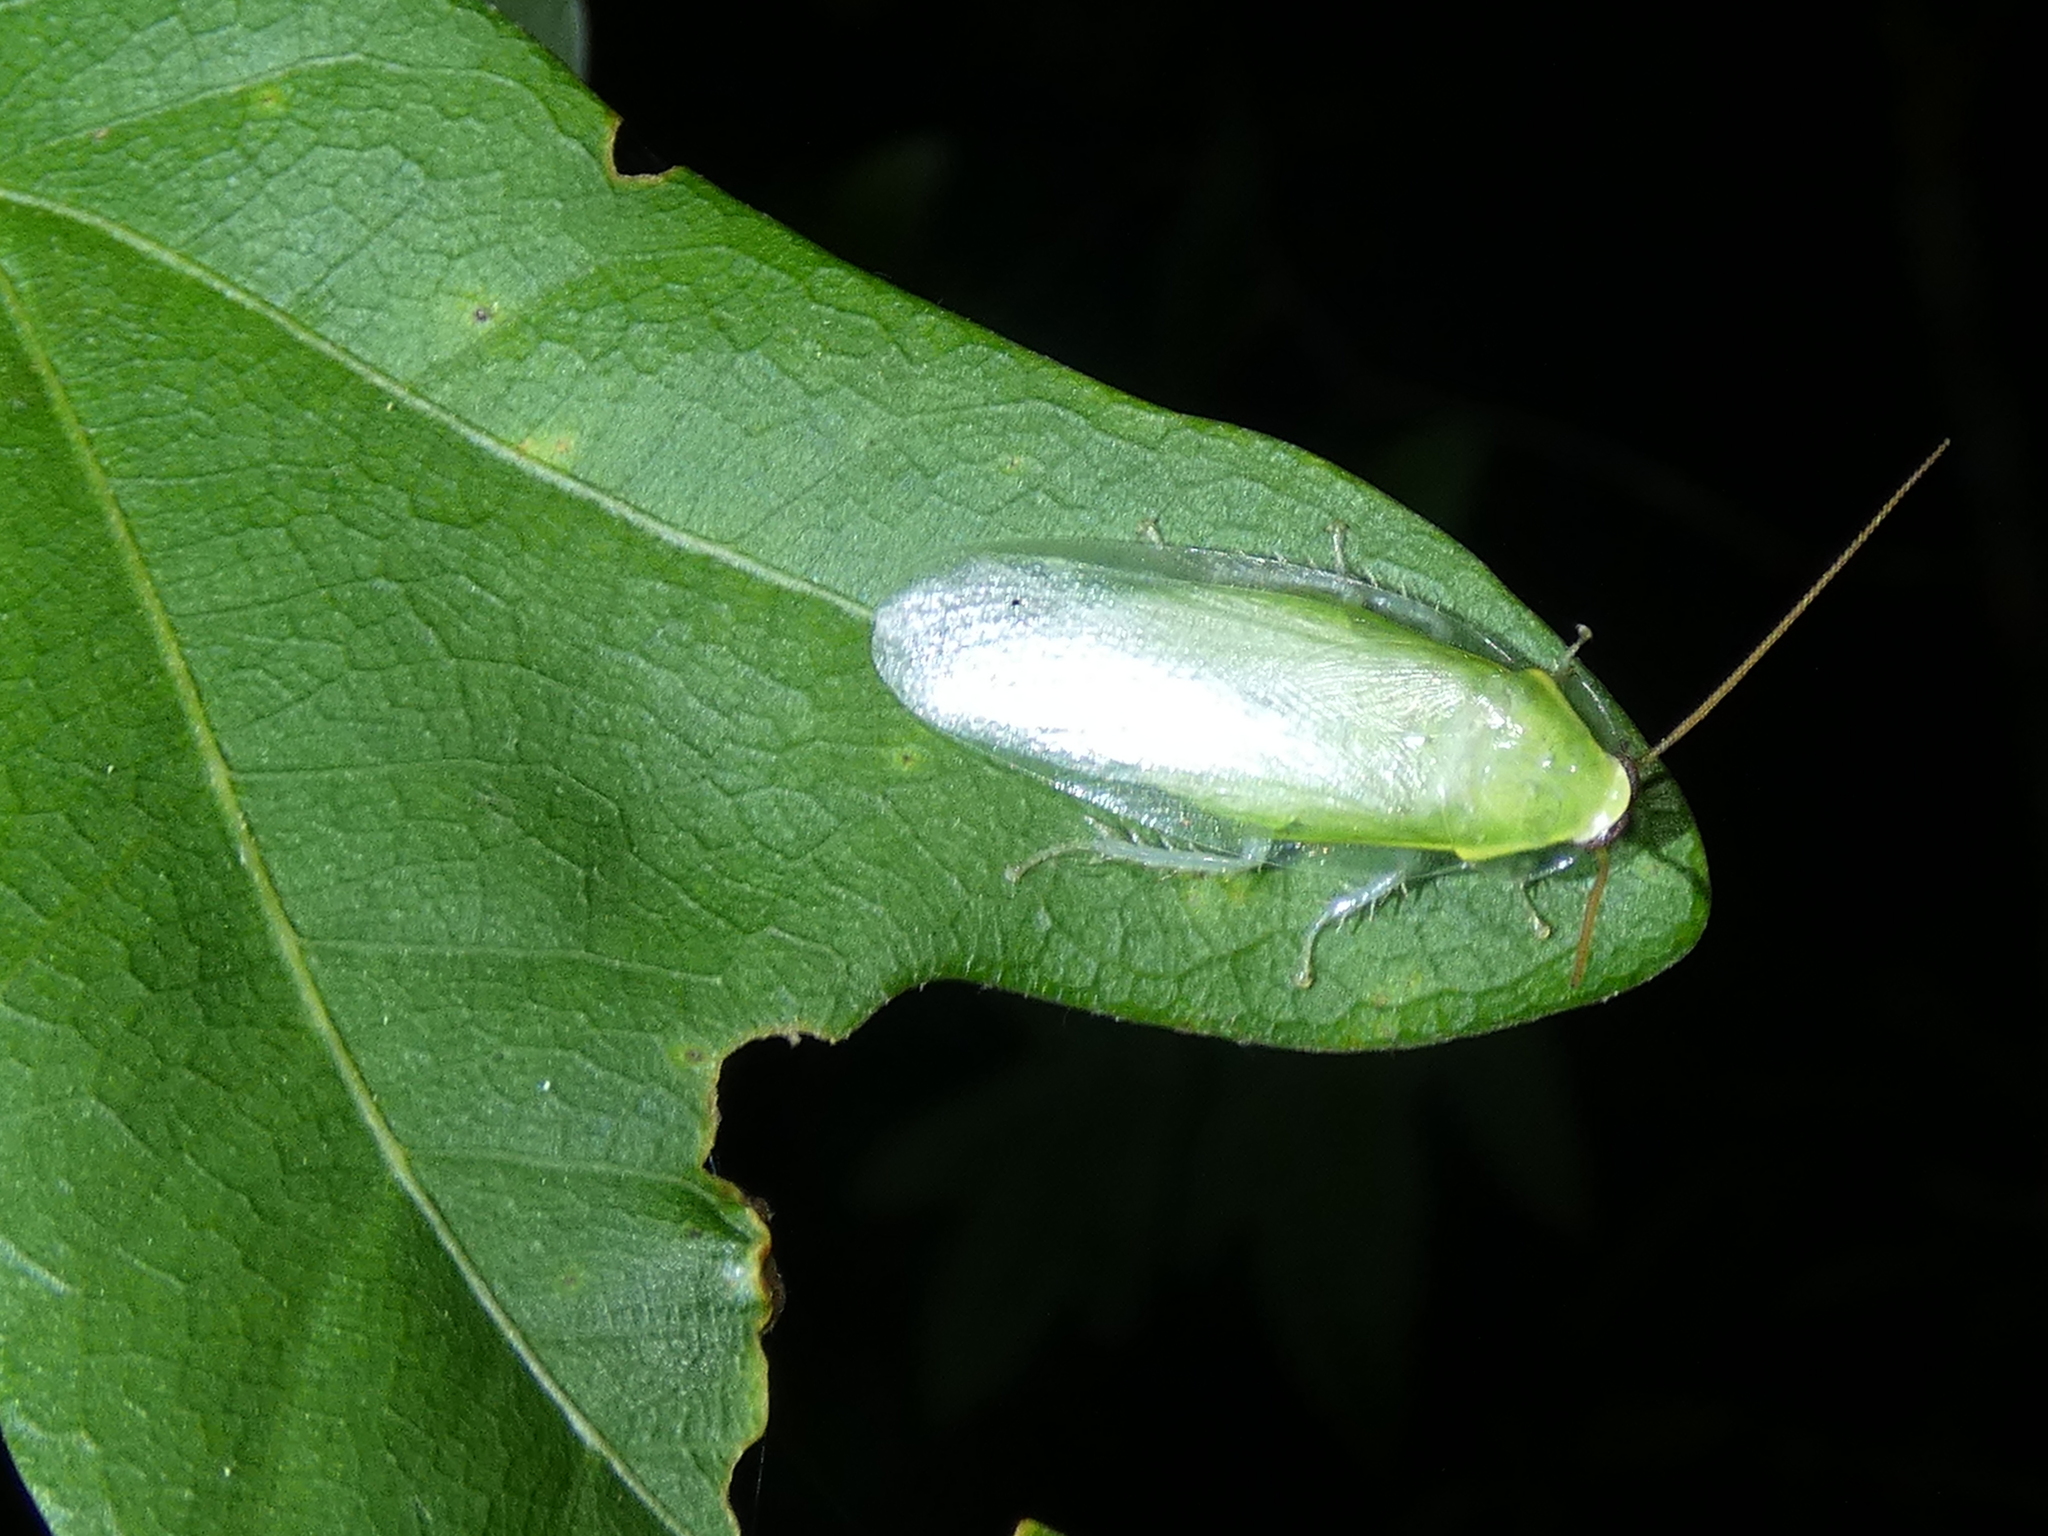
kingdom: Animalia
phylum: Arthropoda
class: Insecta
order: Blattodea
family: Blaberidae
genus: Panchlora
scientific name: Panchlora nivea
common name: Cuban cockroach
